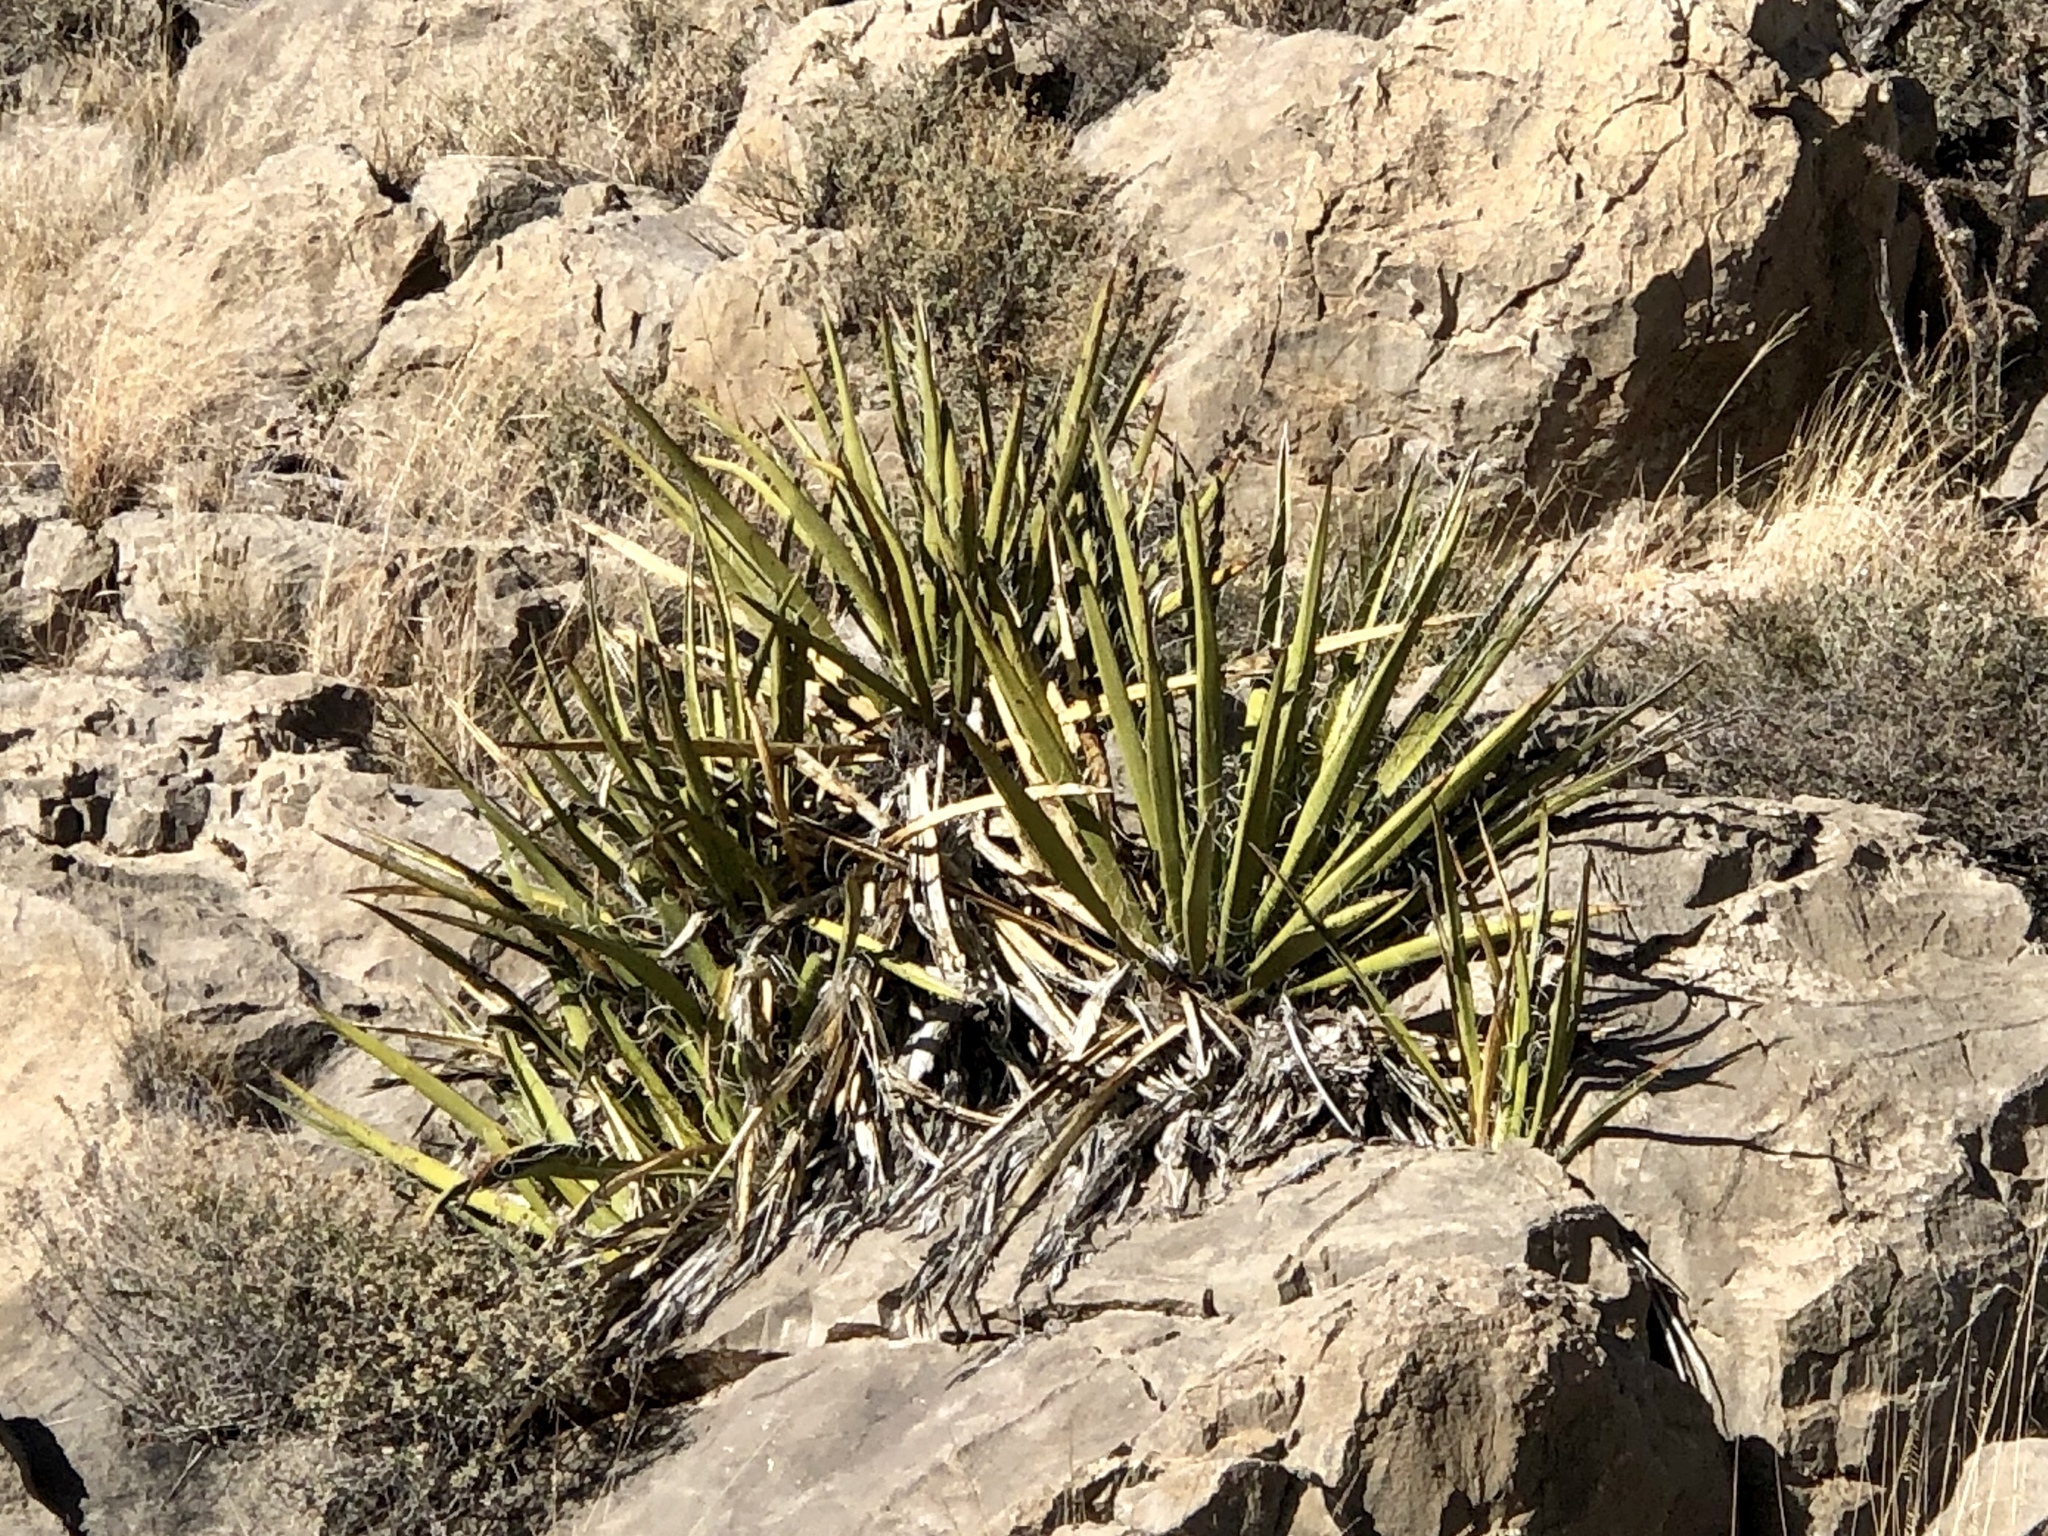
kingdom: Plantae
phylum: Tracheophyta
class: Liliopsida
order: Asparagales
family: Asparagaceae
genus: Yucca
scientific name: Yucca baccata
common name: Banana yucca
